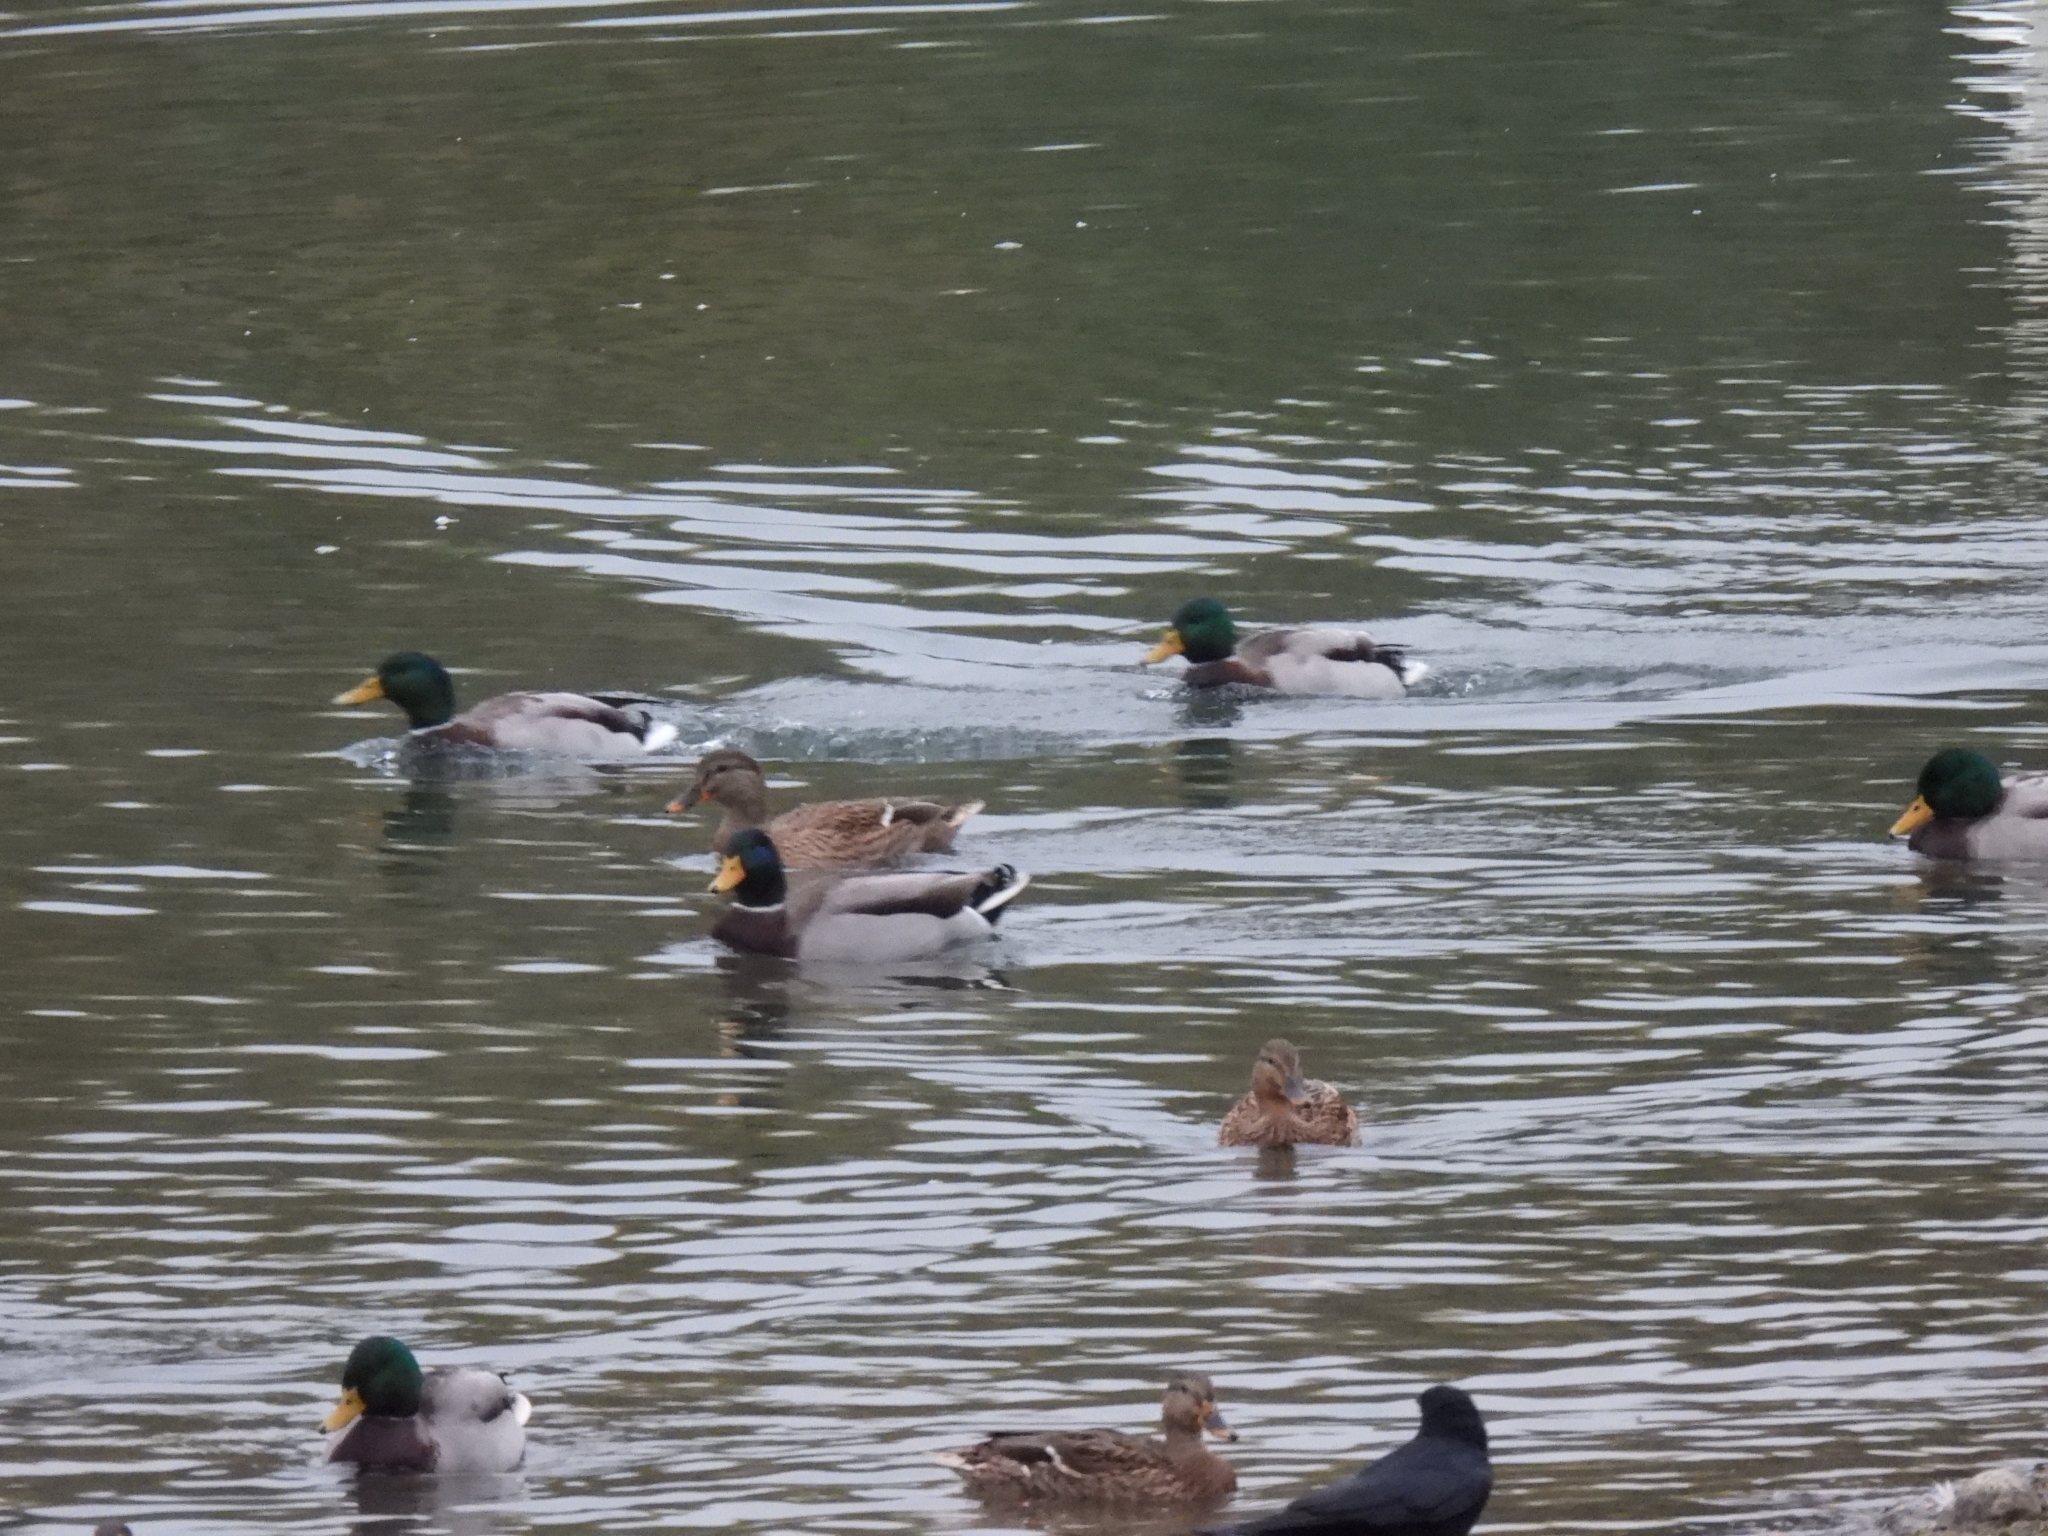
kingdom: Animalia
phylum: Chordata
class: Aves
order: Anseriformes
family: Anatidae
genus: Anas
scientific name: Anas platyrhynchos
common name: Mallard
